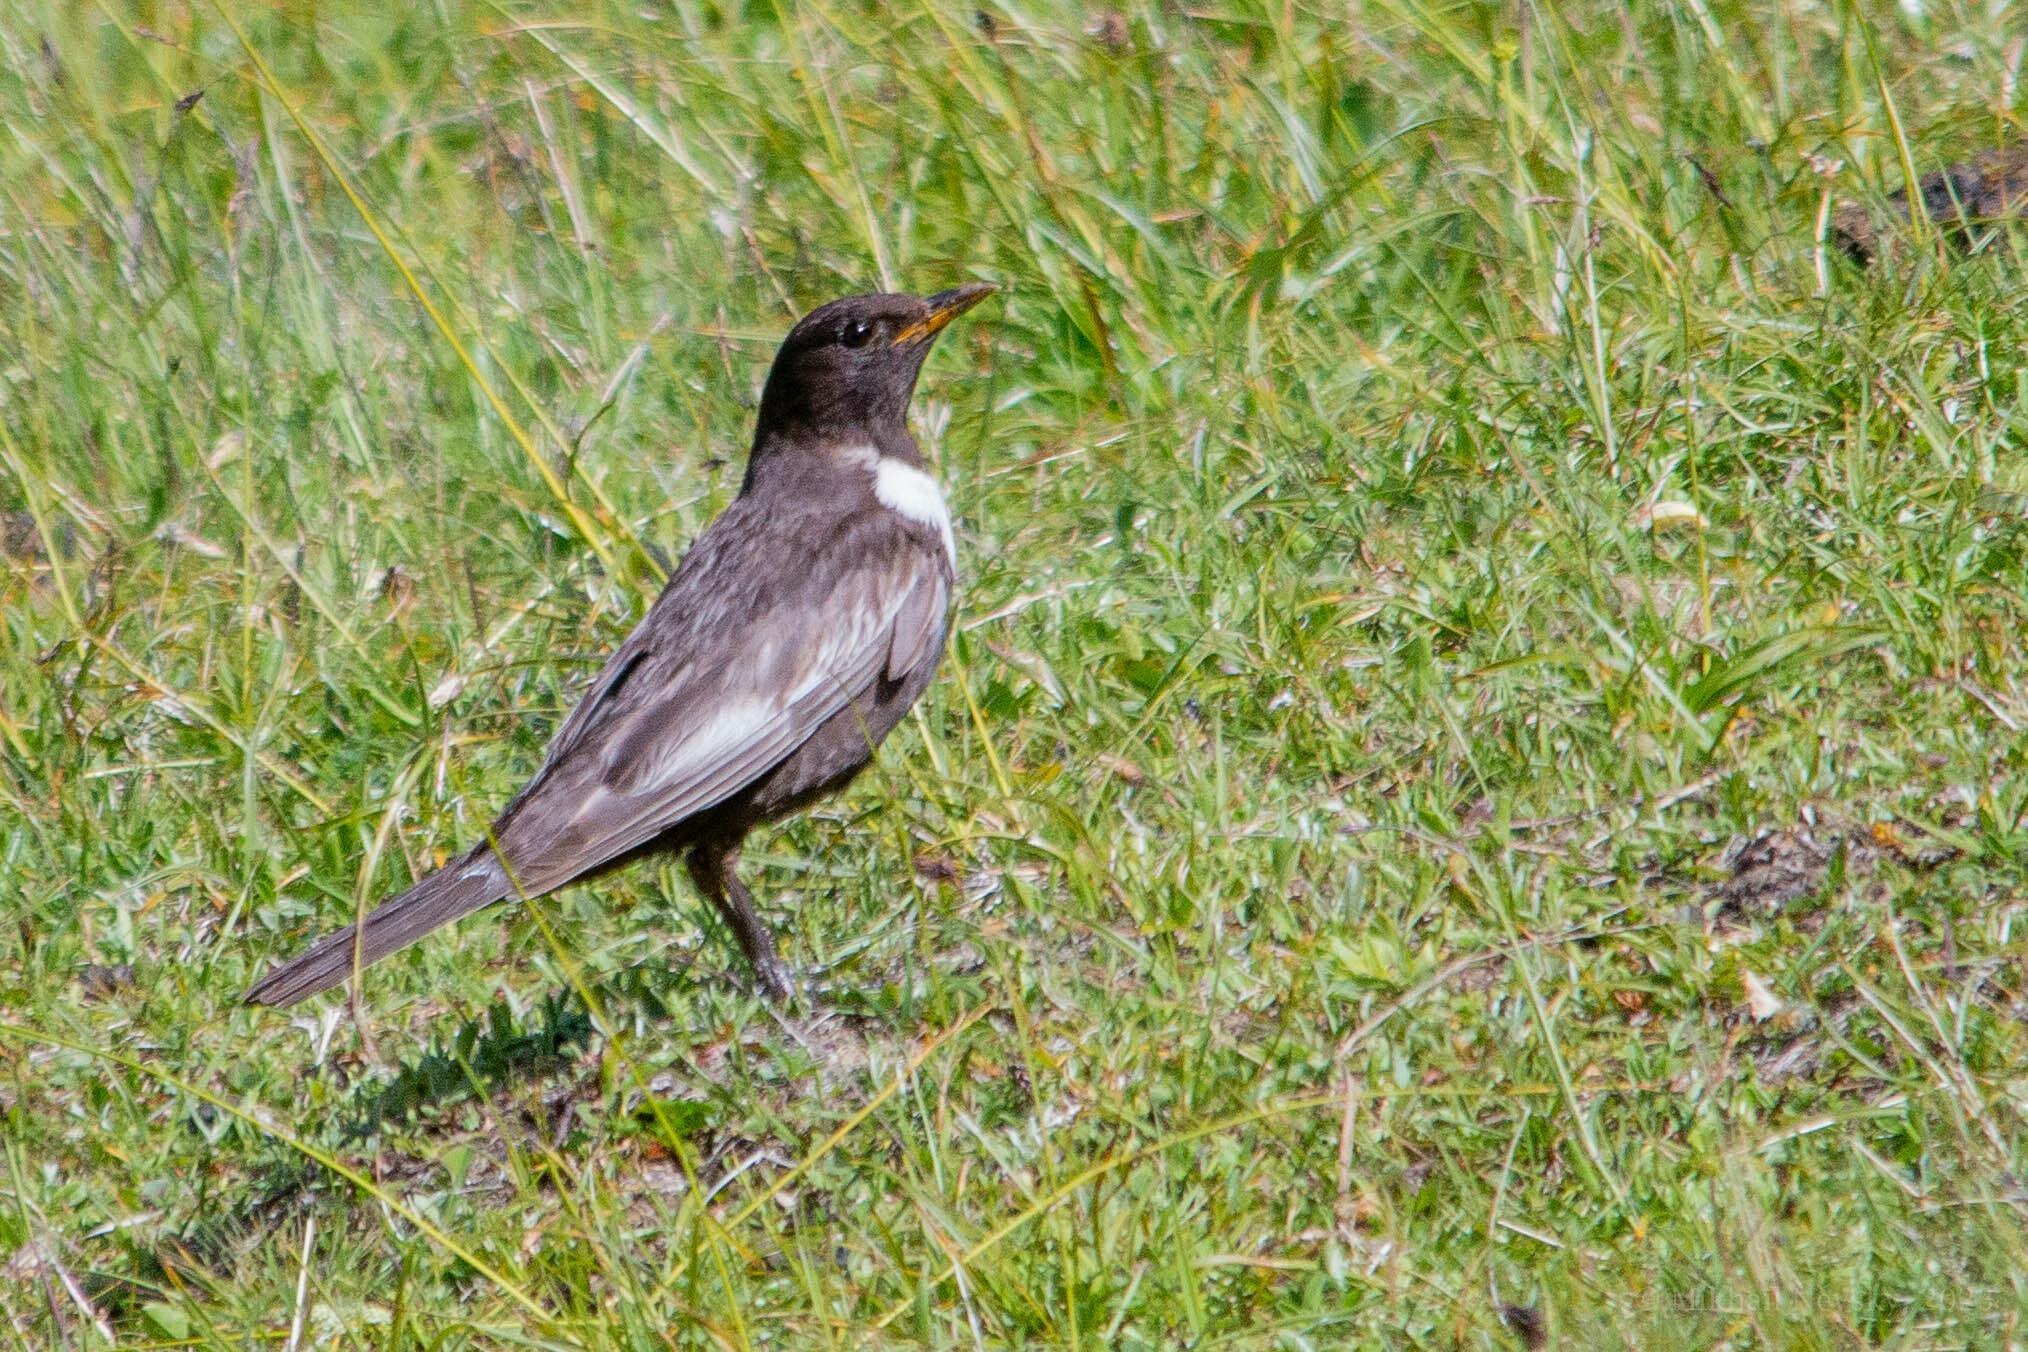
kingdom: Animalia
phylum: Chordata
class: Aves
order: Passeriformes
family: Turdidae
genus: Turdus
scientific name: Turdus torquatus
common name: Ring ouzel
